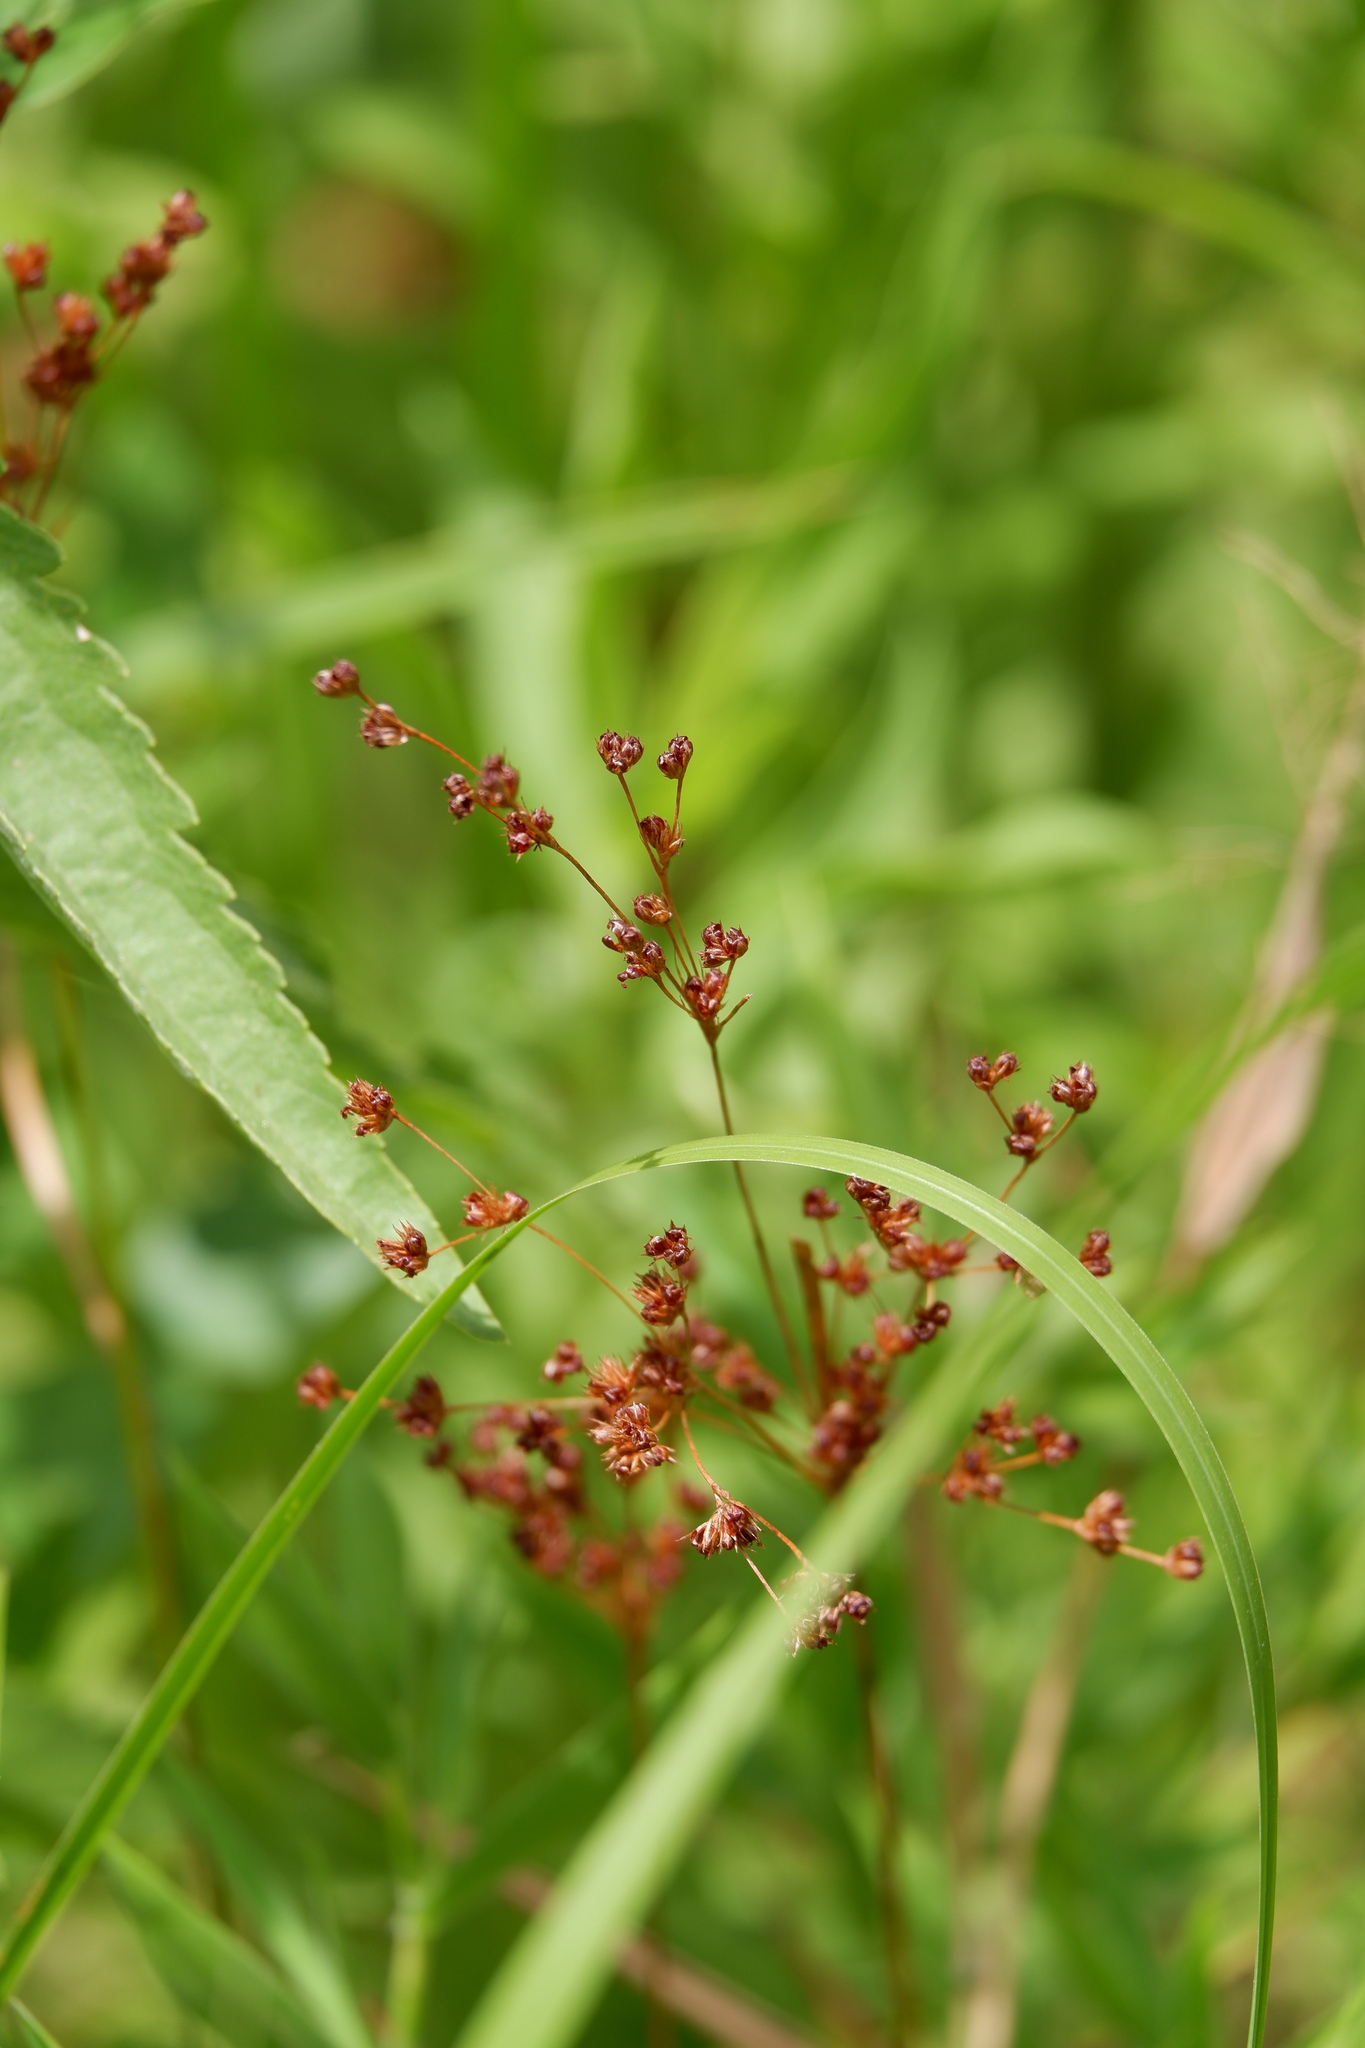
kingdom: Plantae
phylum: Tracheophyta
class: Liliopsida
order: Poales
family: Juncaceae
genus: Juncus
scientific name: Juncus marginatus
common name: Grass-leaf rush
